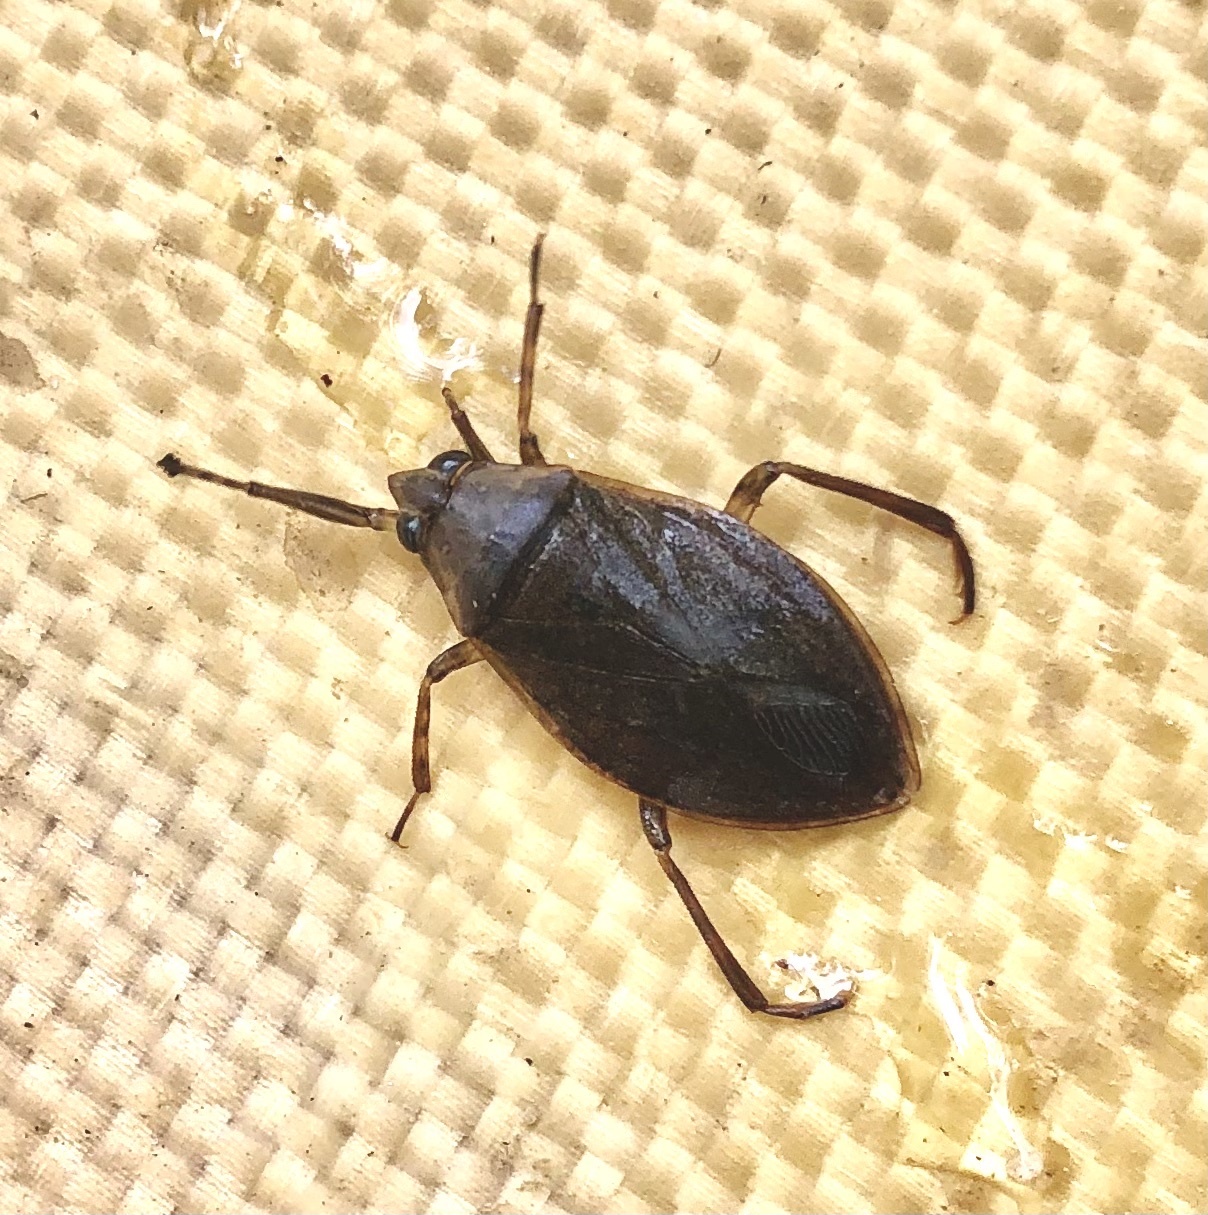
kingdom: Animalia
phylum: Arthropoda
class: Insecta
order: Hemiptera
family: Belostomatidae
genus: Belostoma
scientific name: Belostoma flumineum
